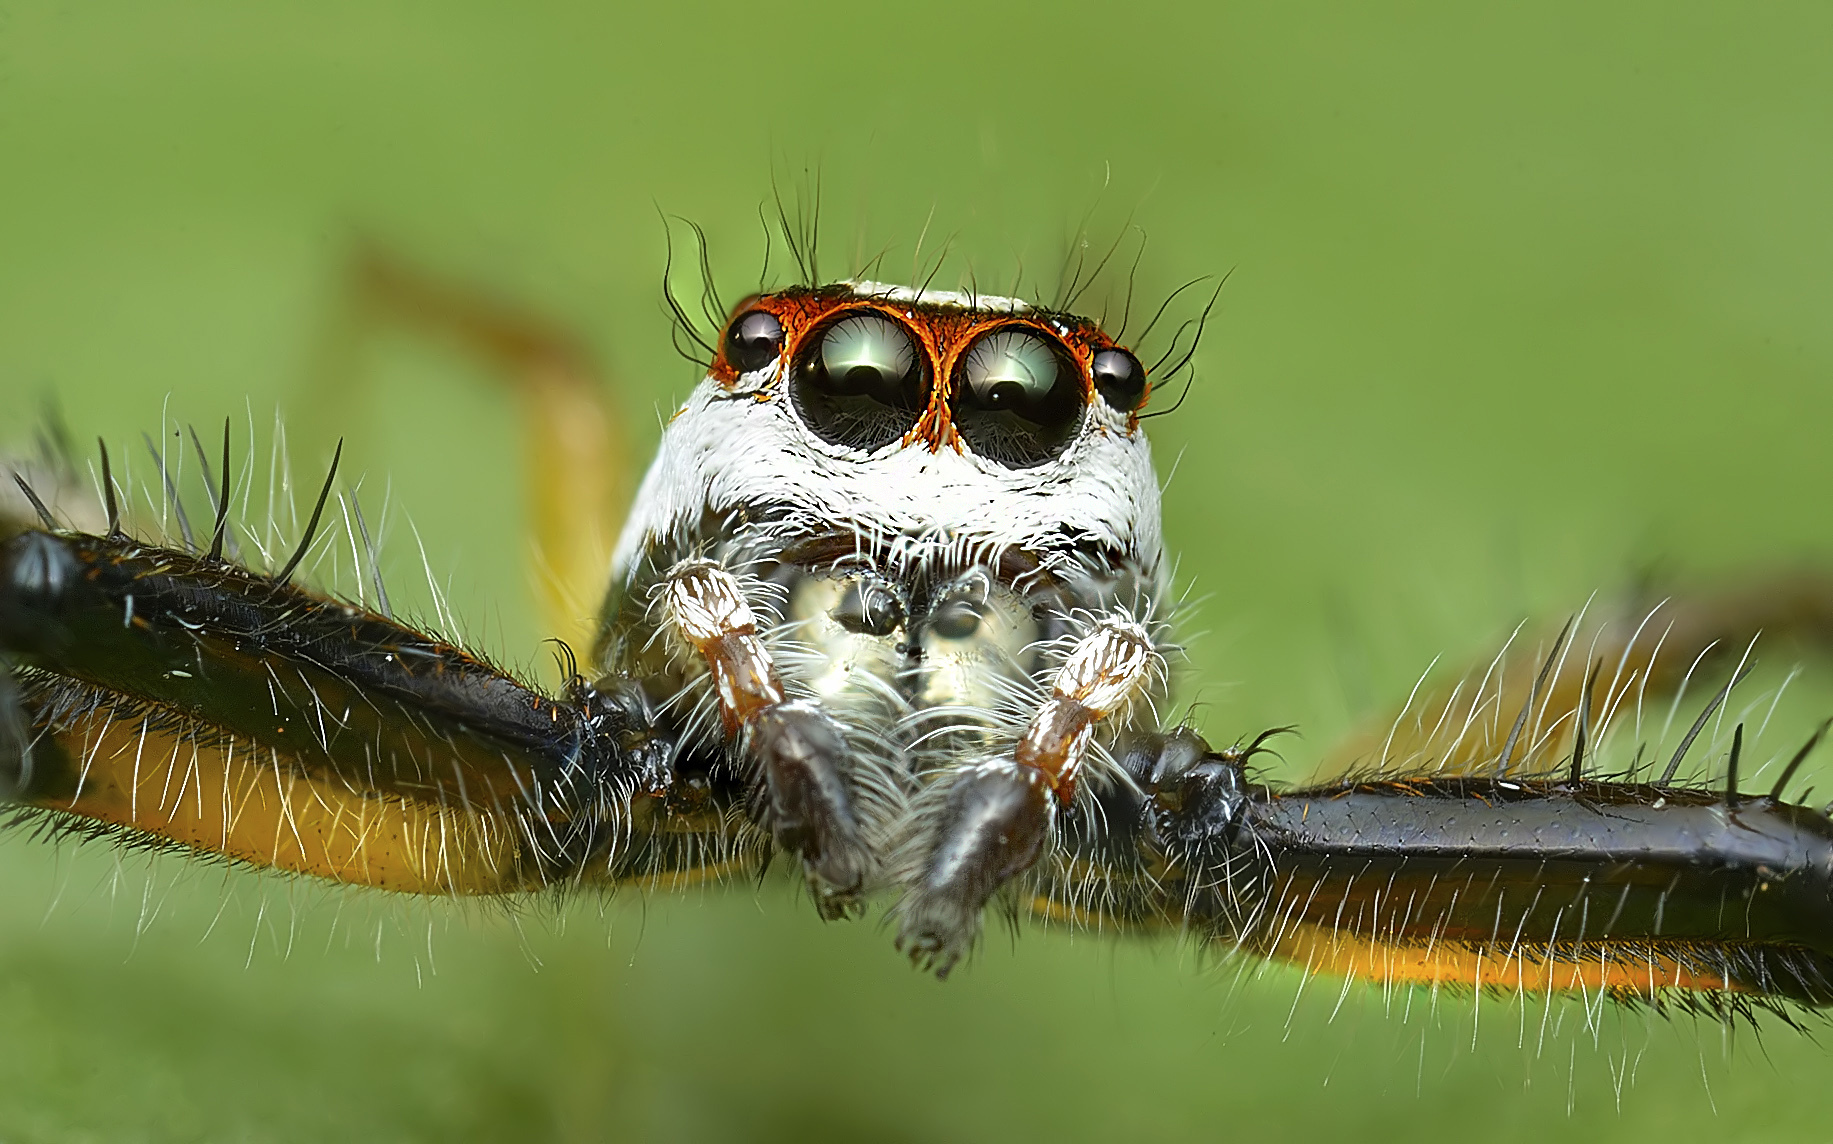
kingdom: Animalia
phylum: Arthropoda
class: Arachnida
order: Araneae
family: Salticidae
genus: Telamonia
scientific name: Telamonia dimidiata
